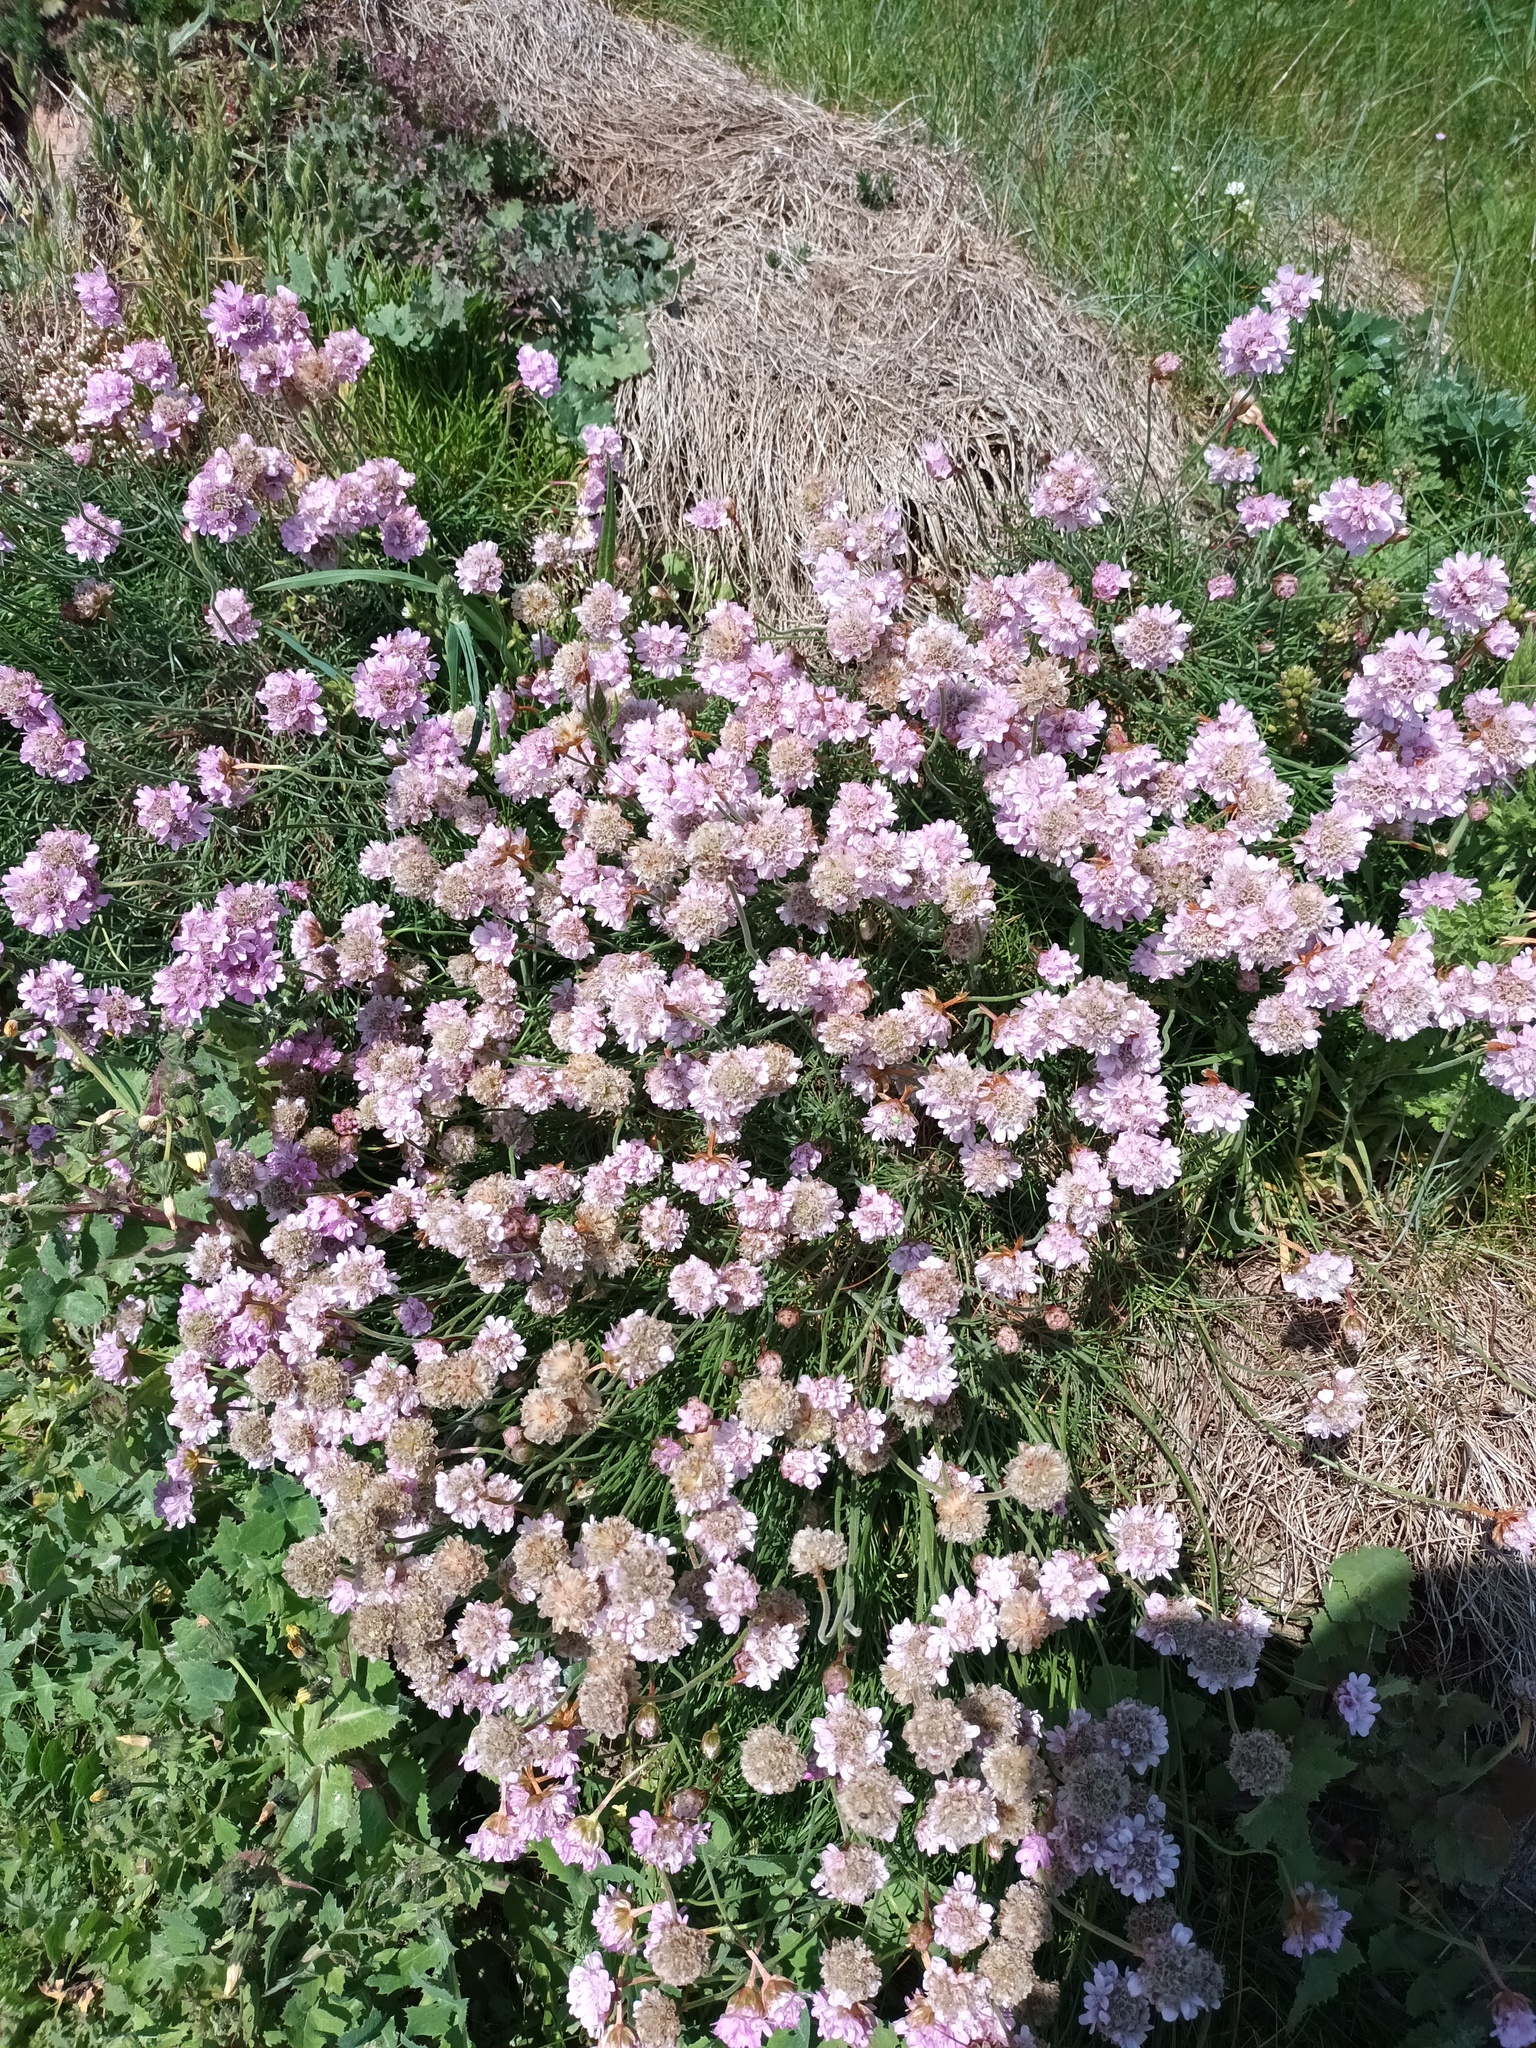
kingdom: Plantae
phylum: Tracheophyta
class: Magnoliopsida
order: Caryophyllales
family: Plumbaginaceae
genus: Armeria
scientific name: Armeria maritima
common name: Thrift
